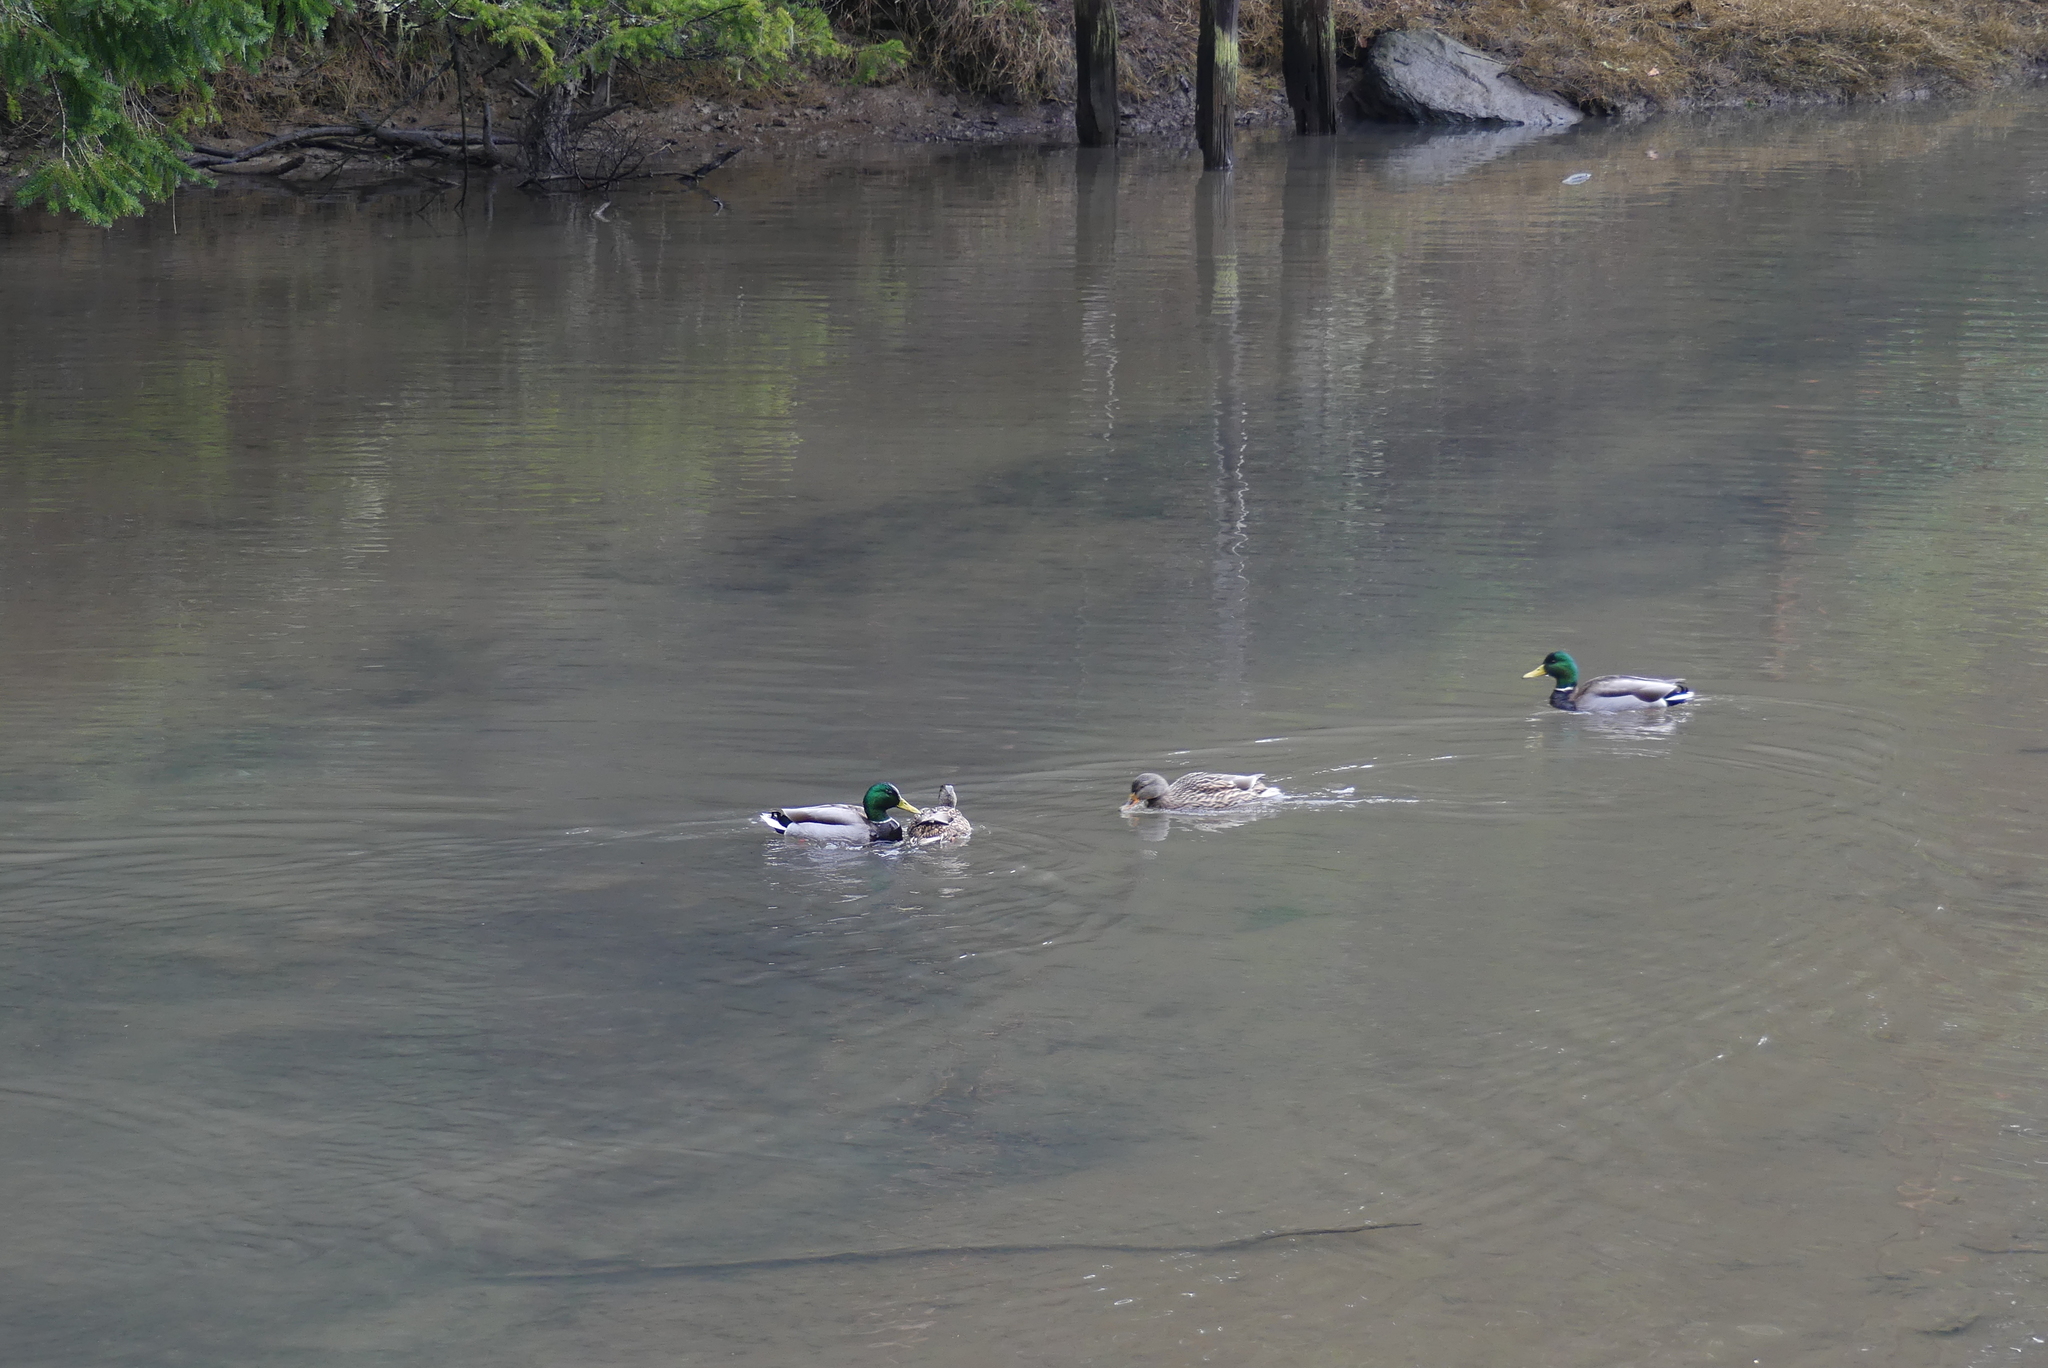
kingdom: Animalia
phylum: Chordata
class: Aves
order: Anseriformes
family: Anatidae
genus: Anas
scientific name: Anas platyrhynchos
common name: Mallard
